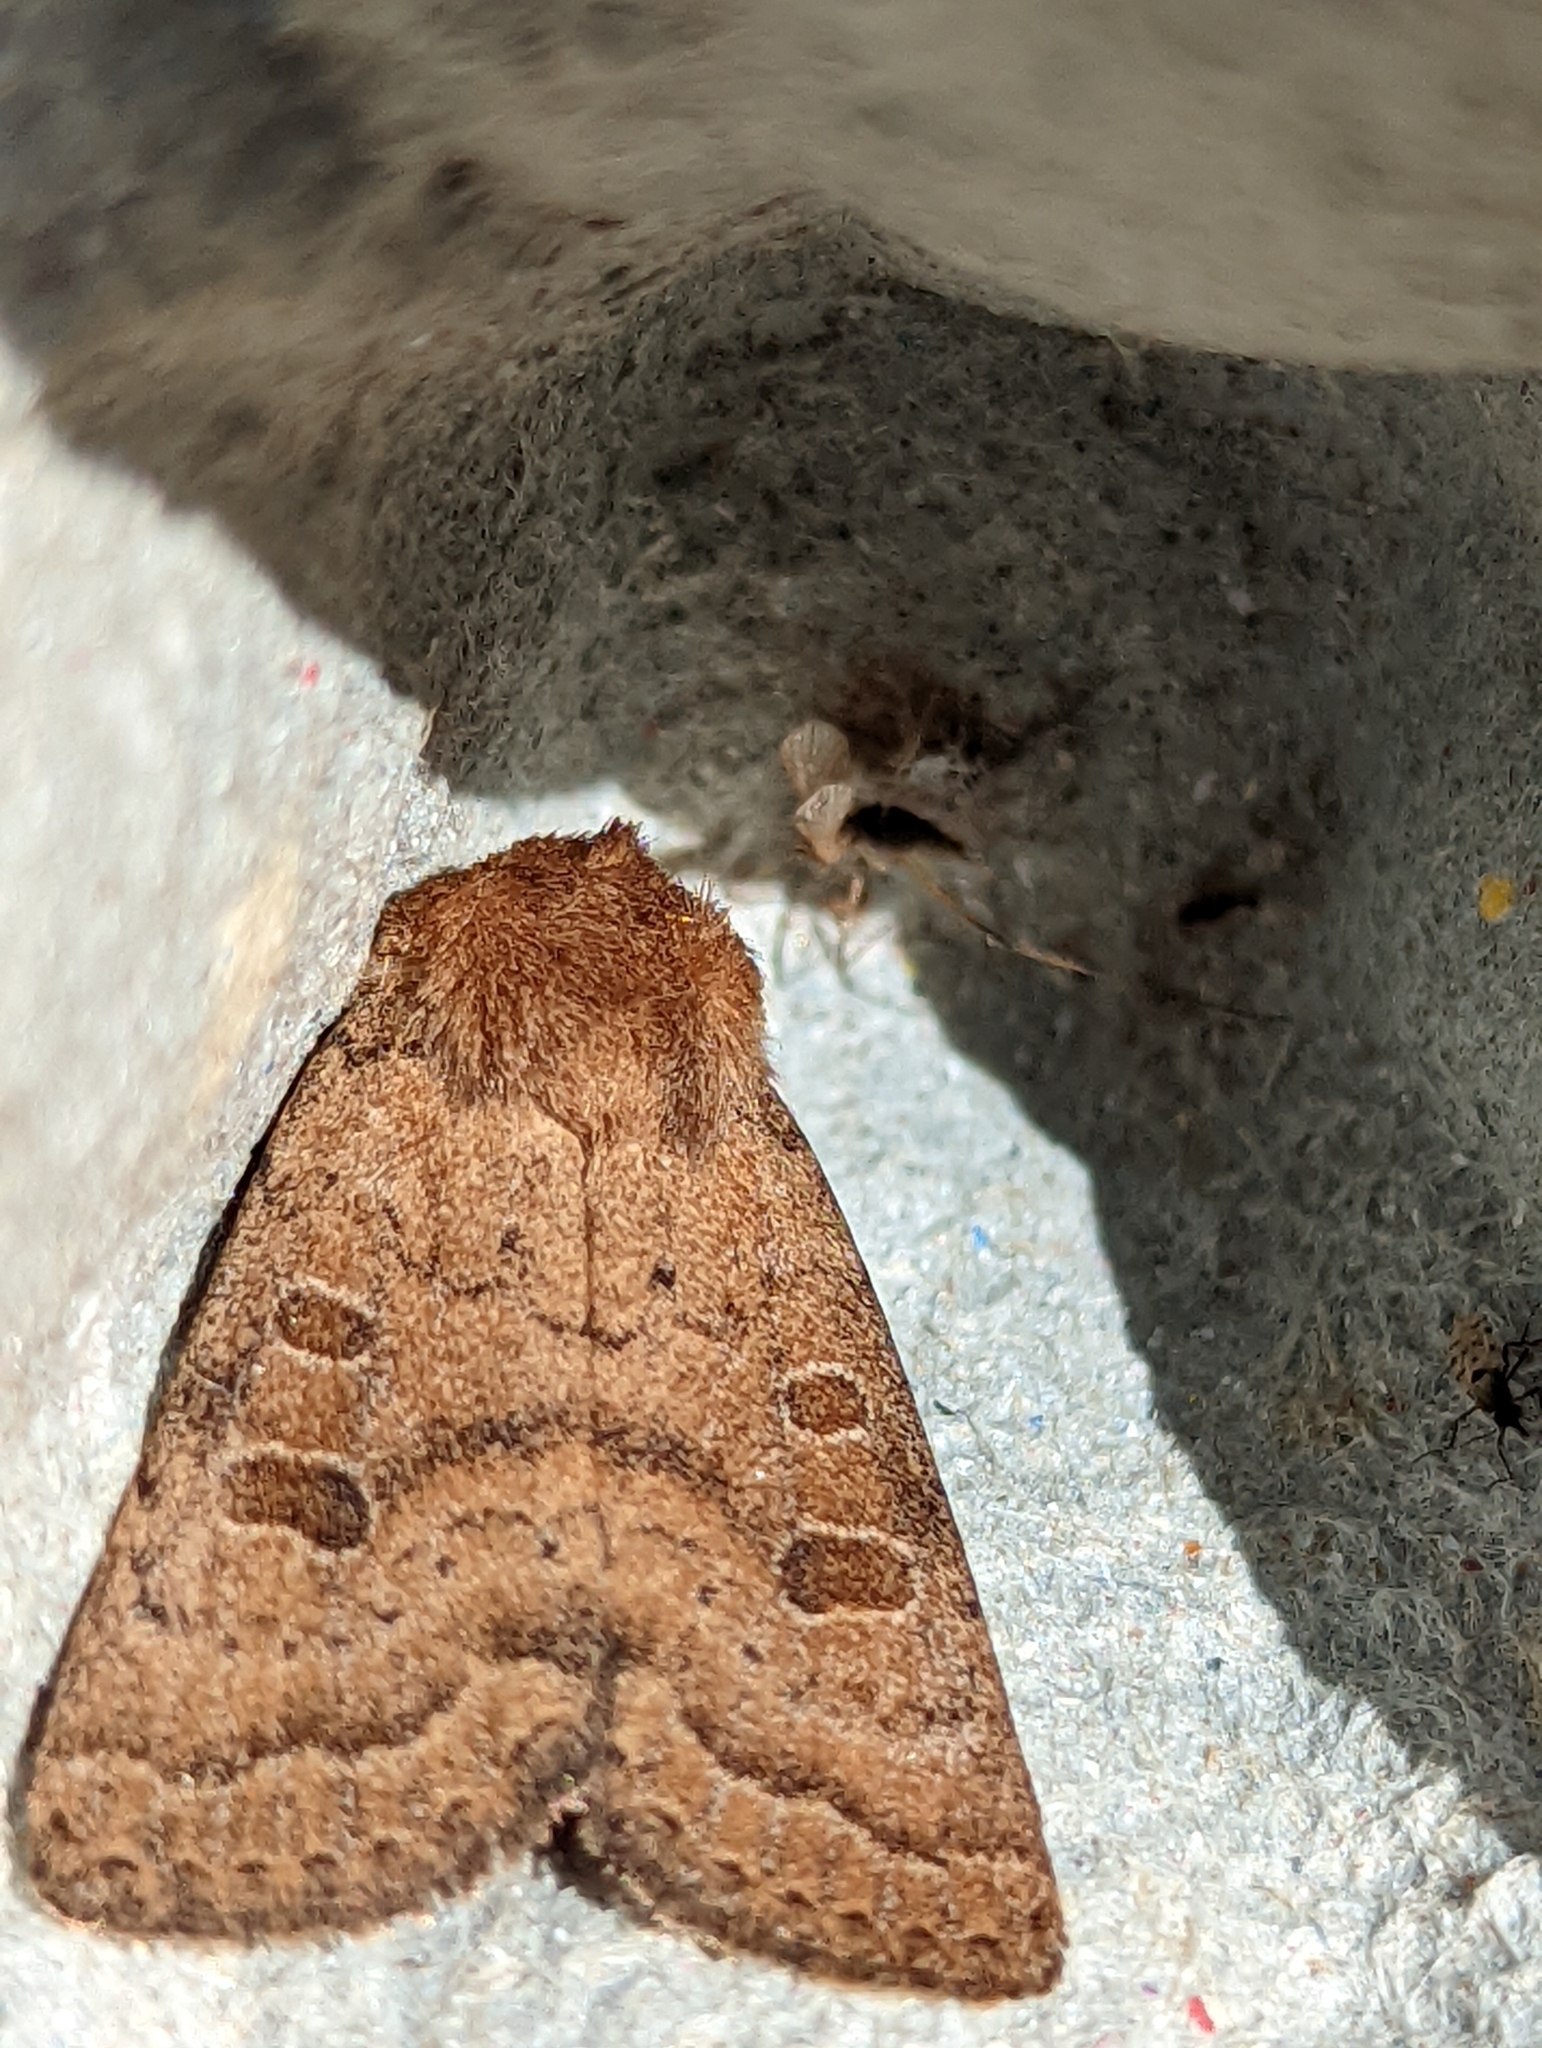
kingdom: Animalia
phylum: Arthropoda
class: Insecta
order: Lepidoptera
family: Noctuidae
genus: Hoplodrina
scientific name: Hoplodrina octogenaria
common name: Uncertain
